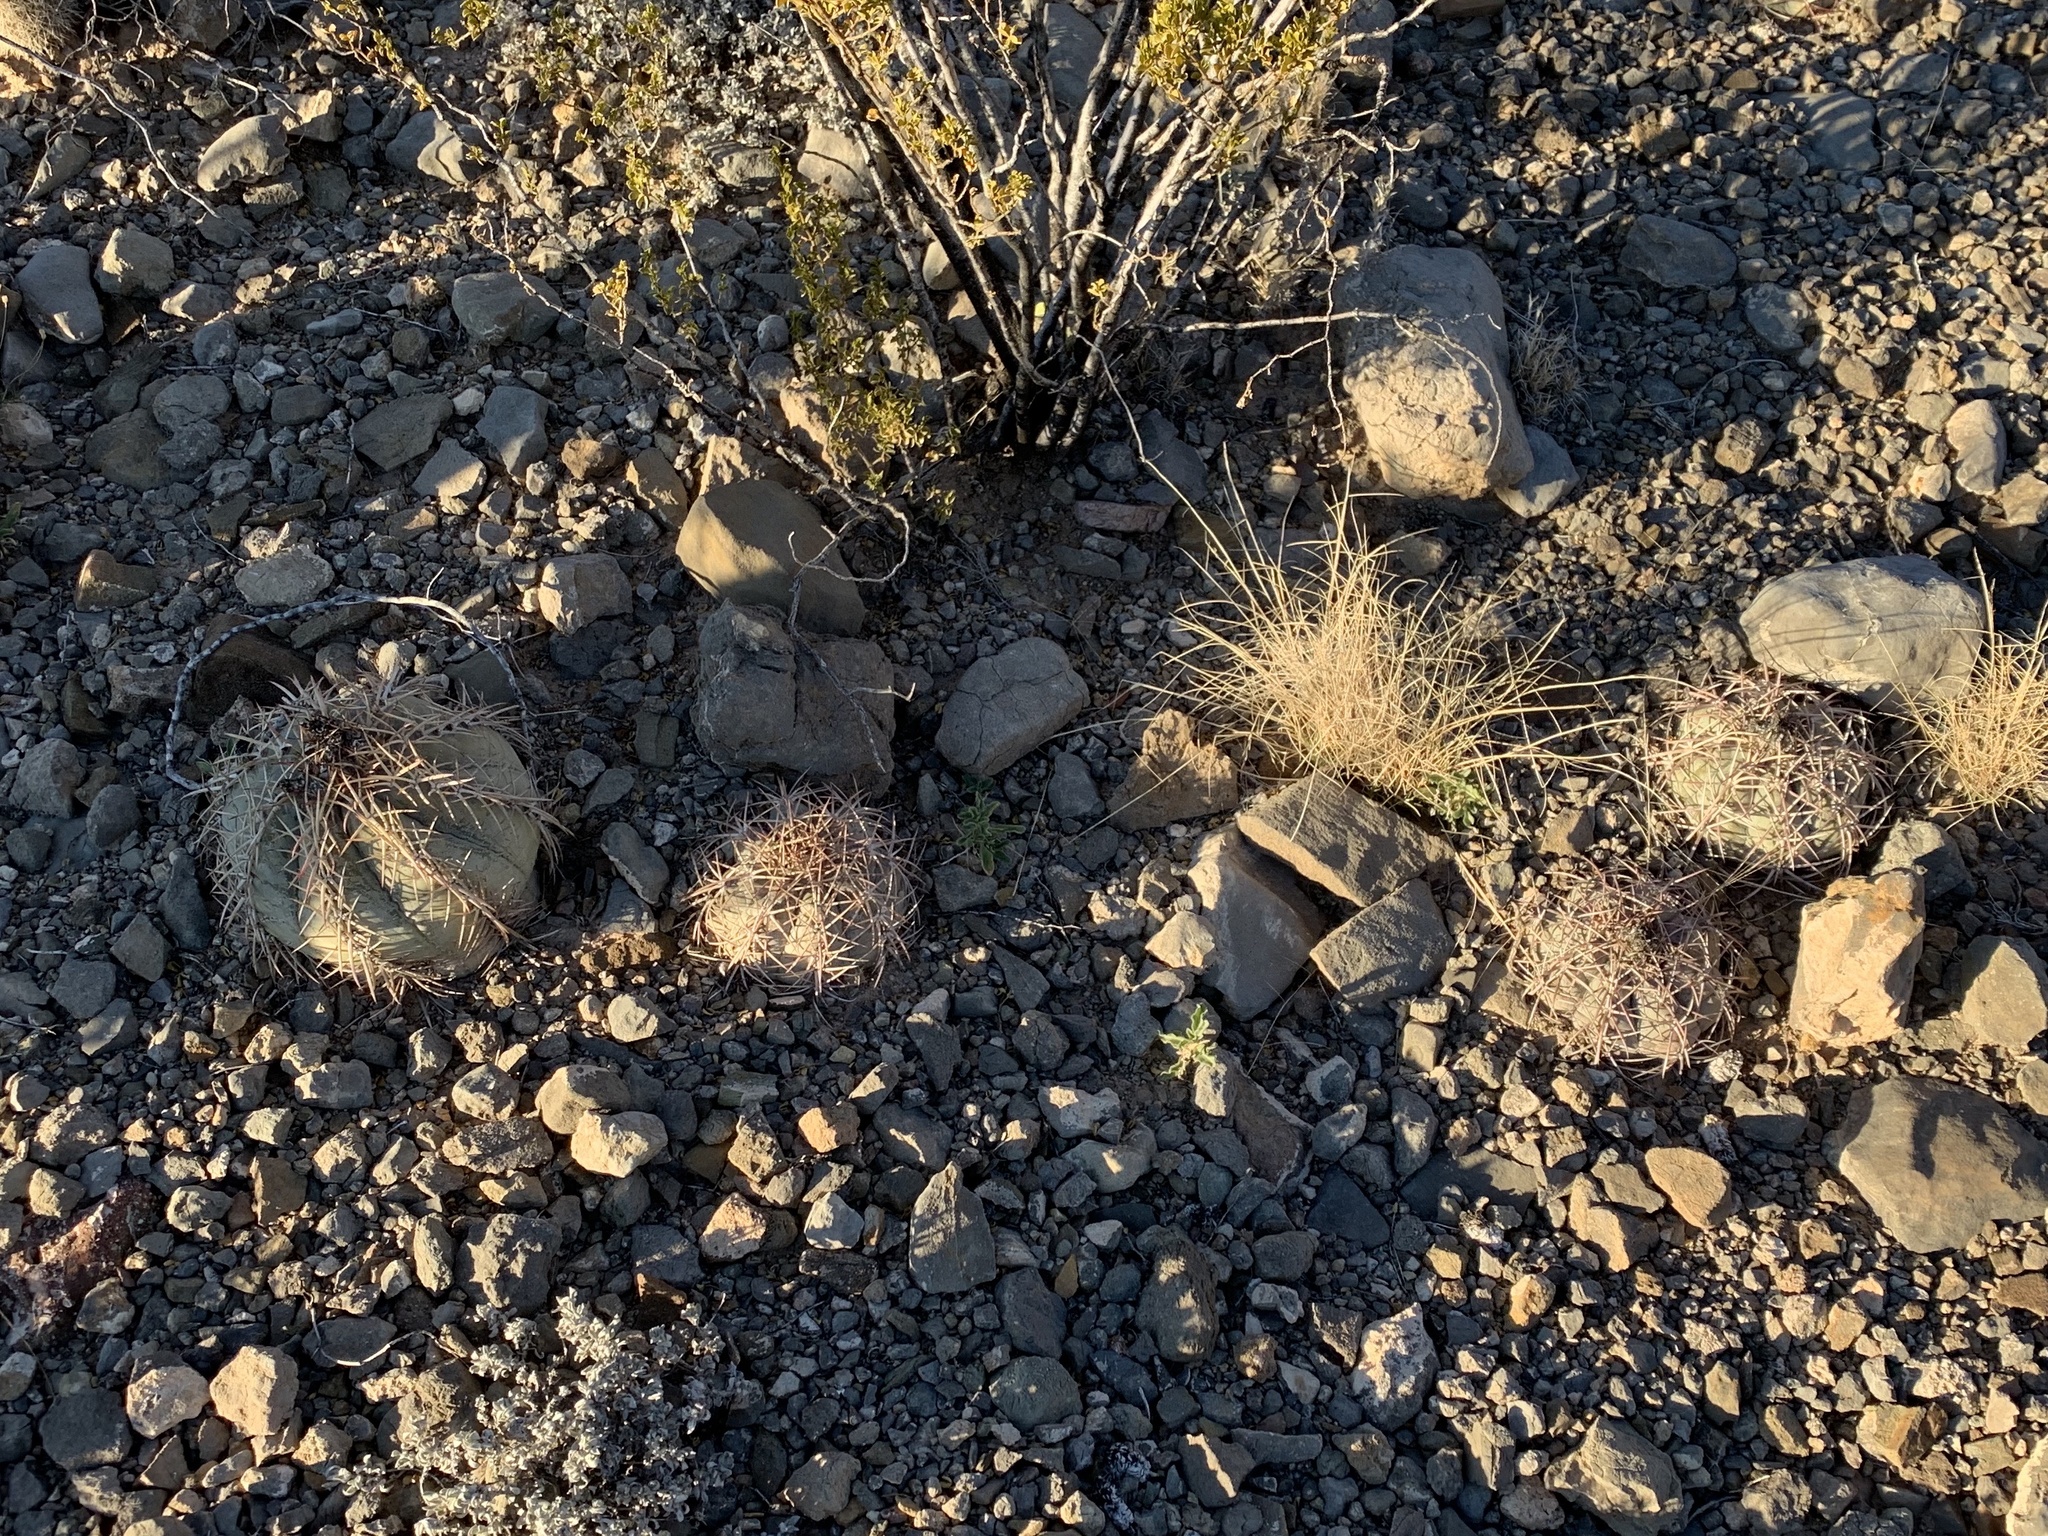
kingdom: Plantae
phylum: Tracheophyta
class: Magnoliopsida
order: Caryophyllales
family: Cactaceae
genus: Echinocactus
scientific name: Echinocactus horizonthalonius
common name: Devilshead
